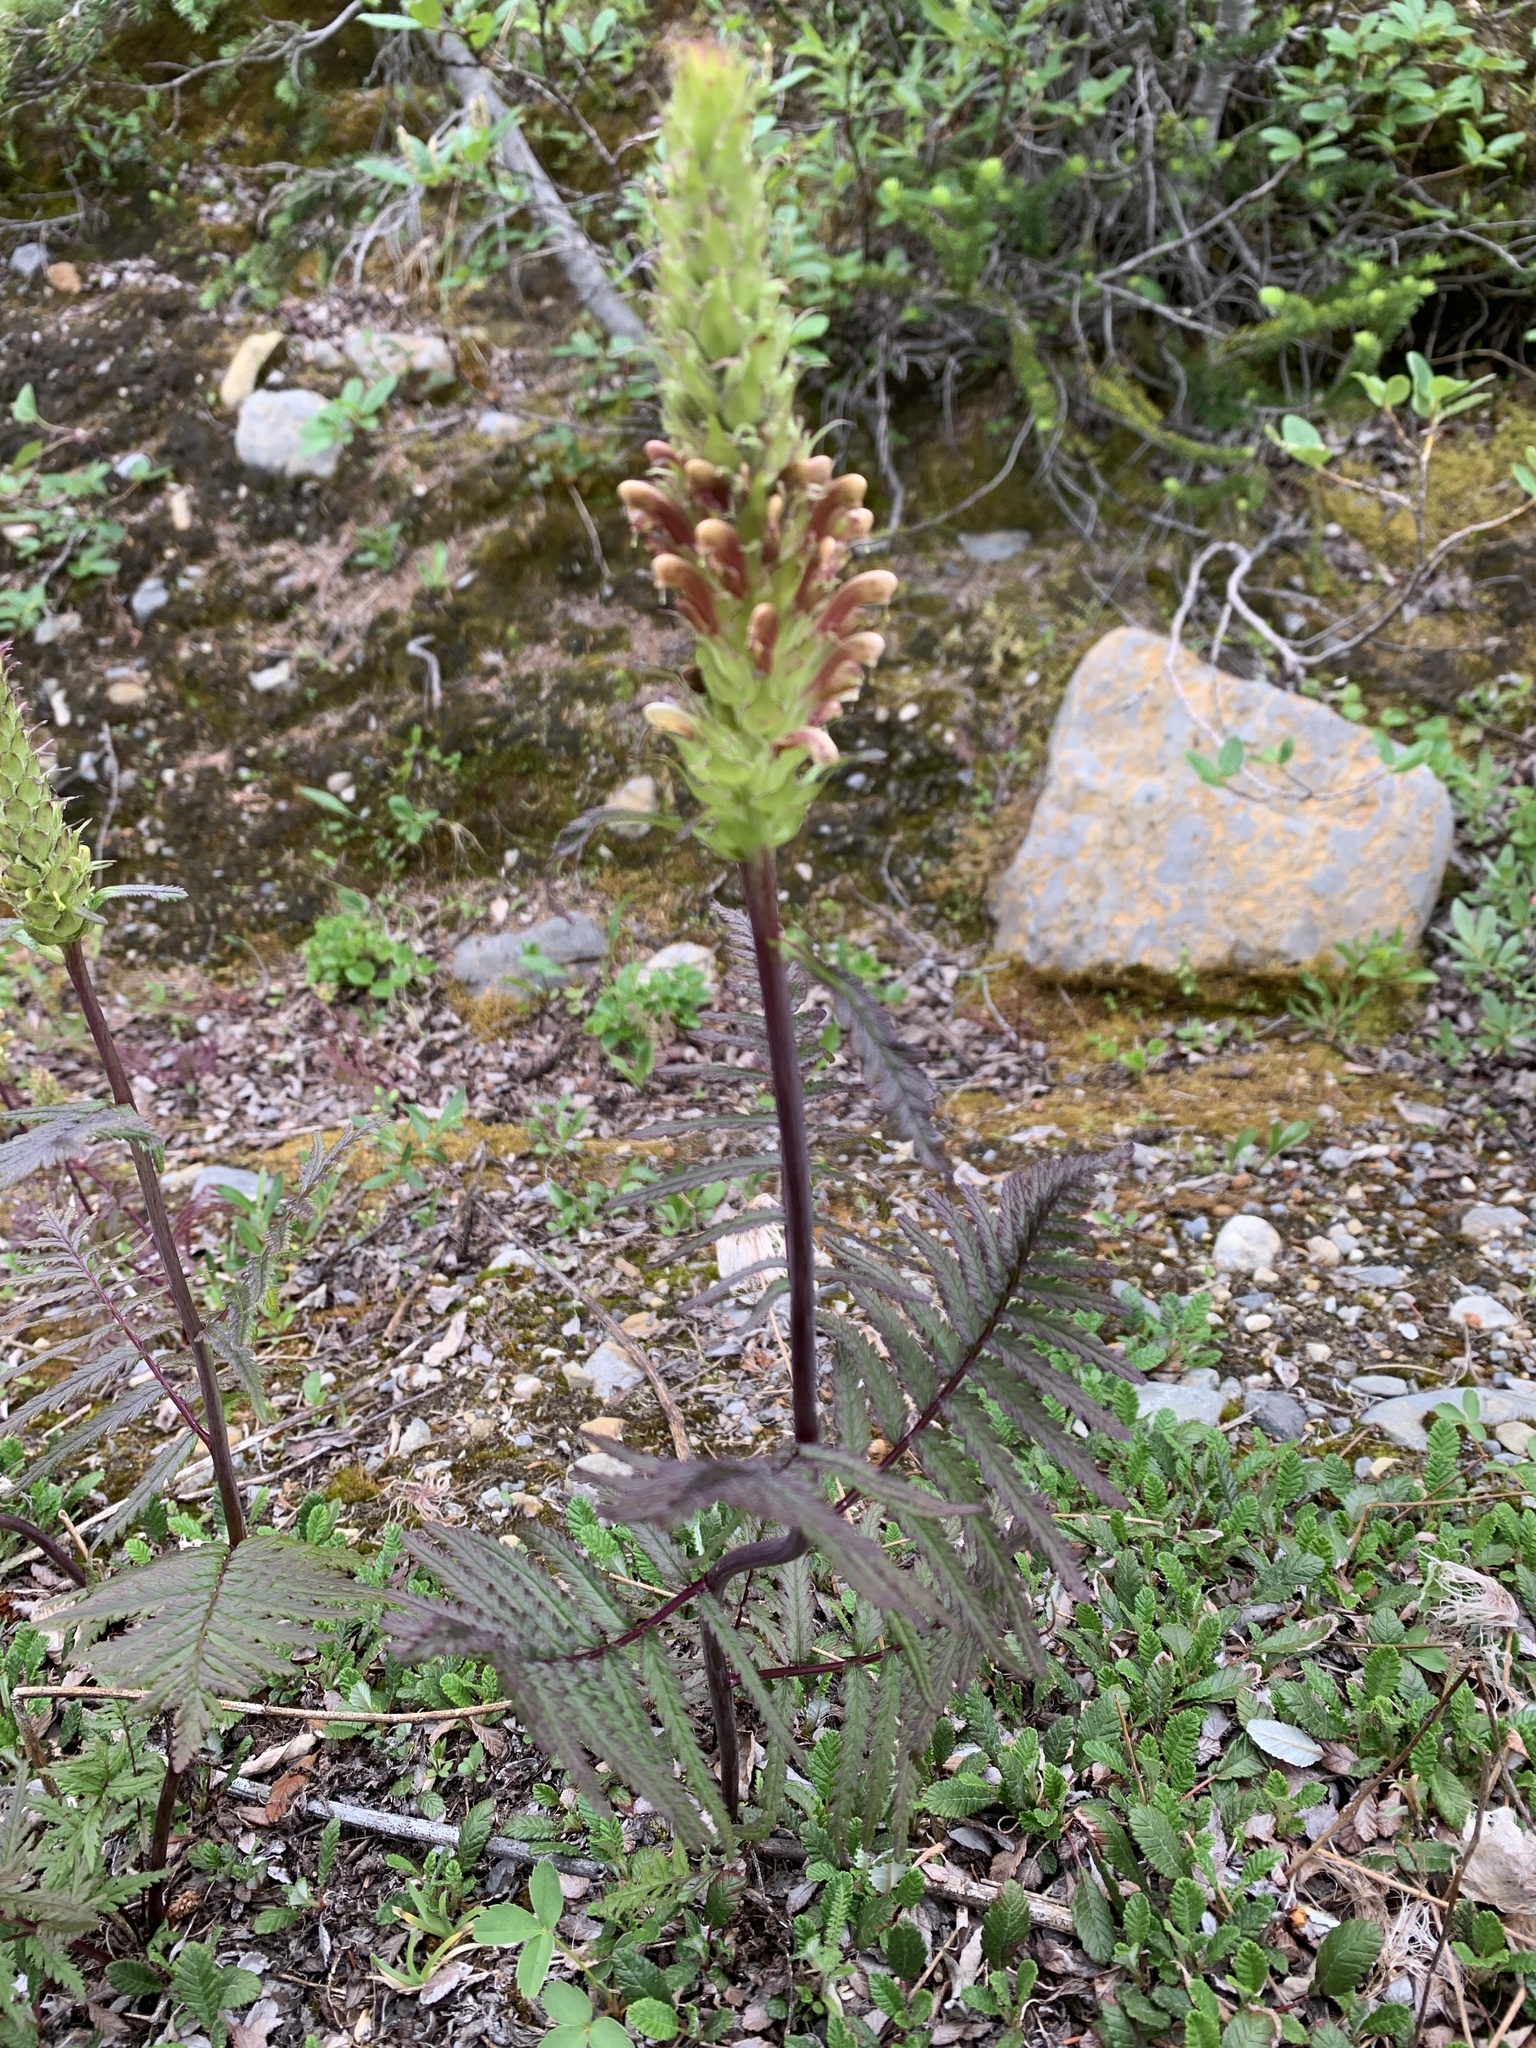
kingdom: Plantae
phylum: Tracheophyta
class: Magnoliopsida
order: Lamiales
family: Orobanchaceae
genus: Pedicularis
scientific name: Pedicularis bracteosa
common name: Bracted lousewort
